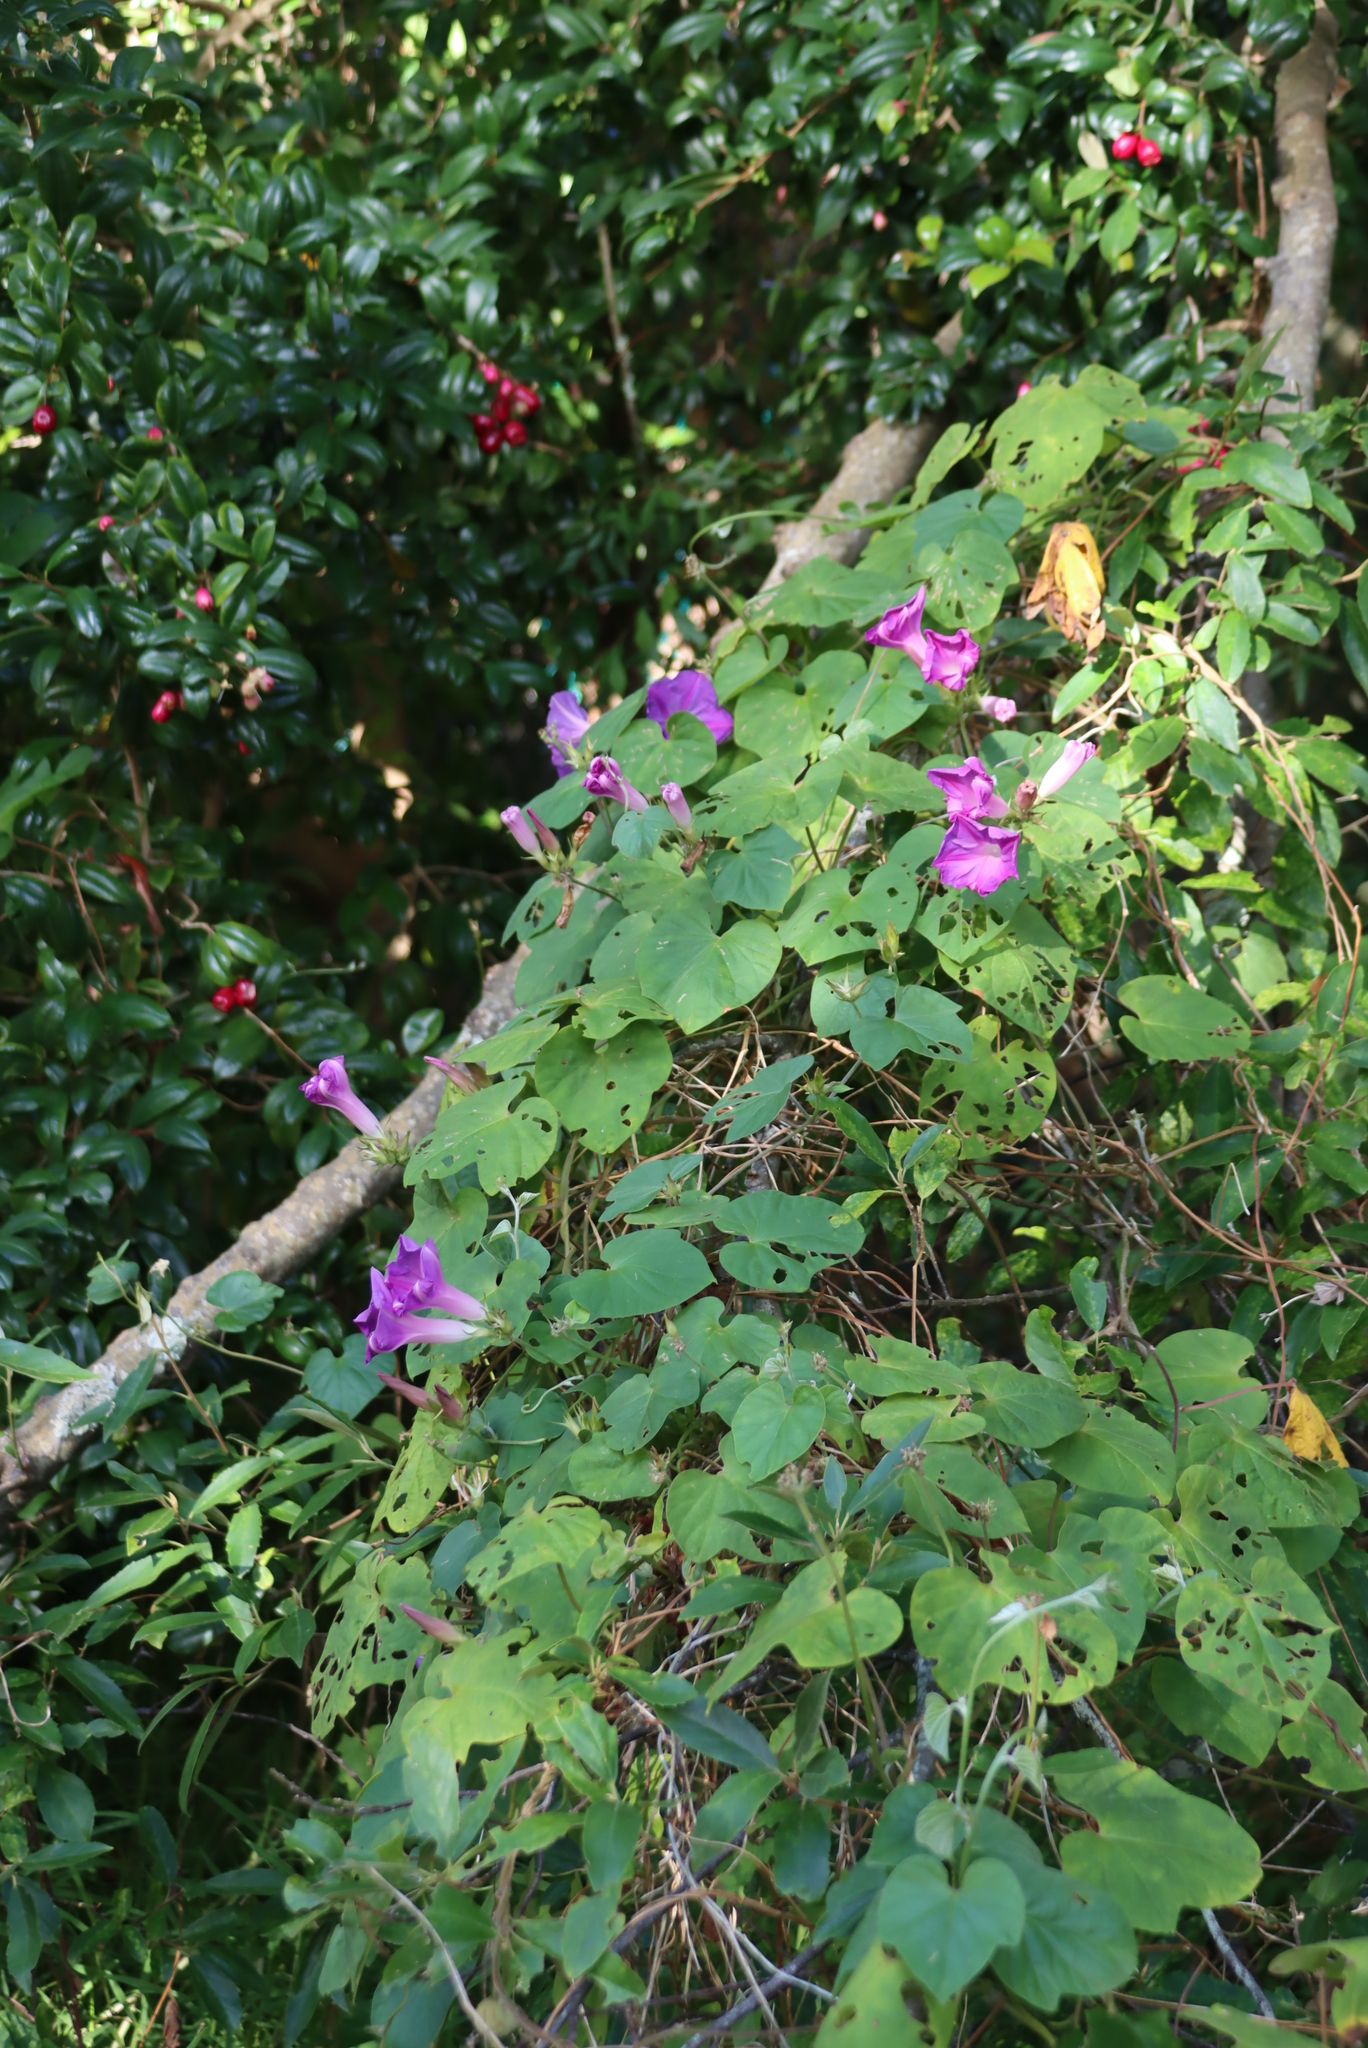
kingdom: Plantae
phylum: Tracheophyta
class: Magnoliopsida
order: Solanales
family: Convolvulaceae
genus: Ipomoea
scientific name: Ipomoea indica
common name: Blue dawnflower
